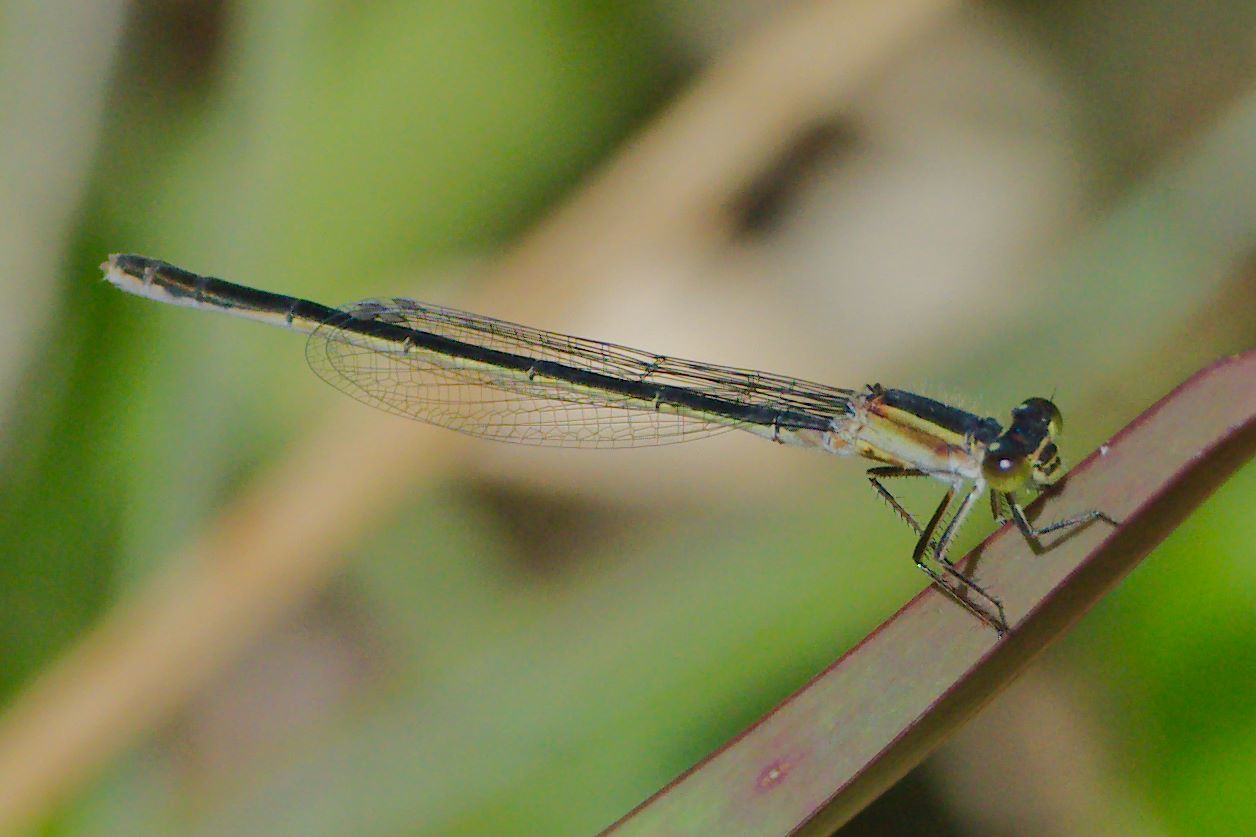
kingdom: Animalia
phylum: Arthropoda
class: Insecta
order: Odonata
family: Coenagrionidae
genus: Ischnura
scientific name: Ischnura ramburii
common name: Rambur's forktail
